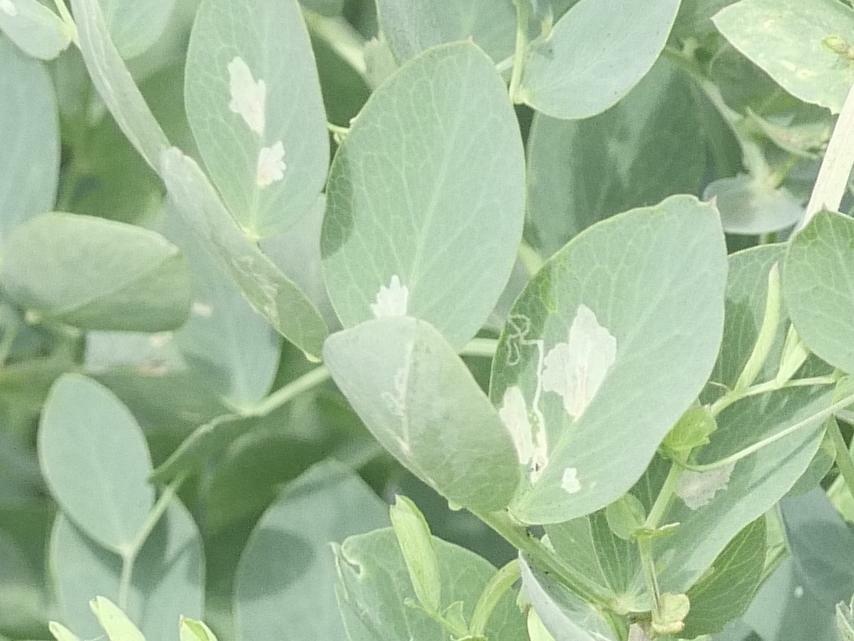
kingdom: Animalia
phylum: Arthropoda
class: Insecta
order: Lepidoptera
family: Gracillariidae
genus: Micrurapteryx
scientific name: Micrurapteryx occulta
